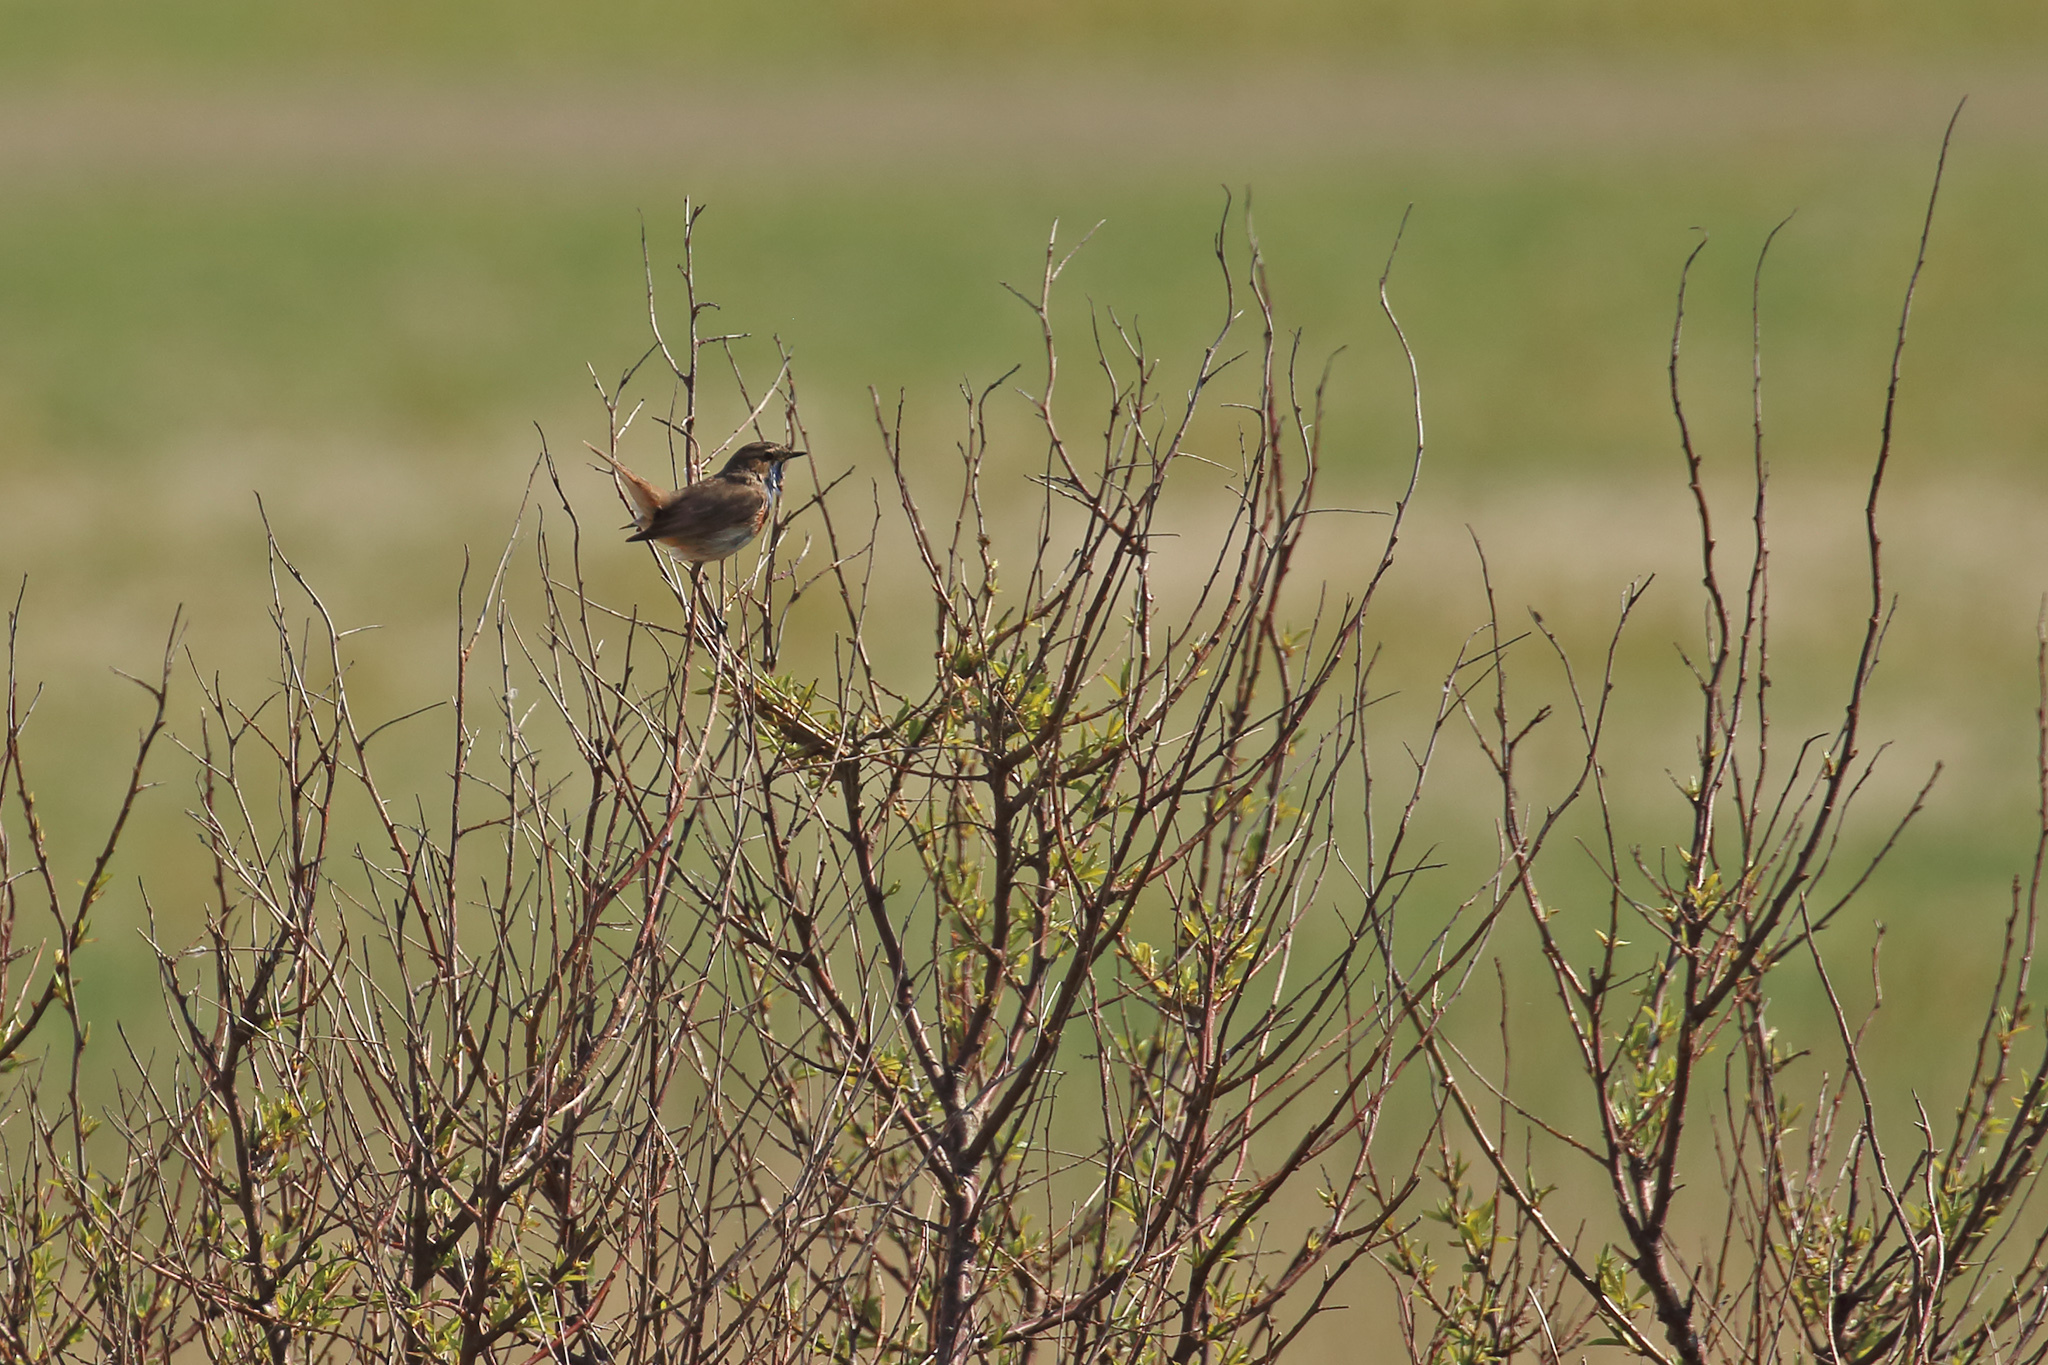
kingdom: Animalia
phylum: Chordata
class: Aves
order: Passeriformes
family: Muscicapidae
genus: Luscinia
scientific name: Luscinia svecica
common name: Bluethroat
